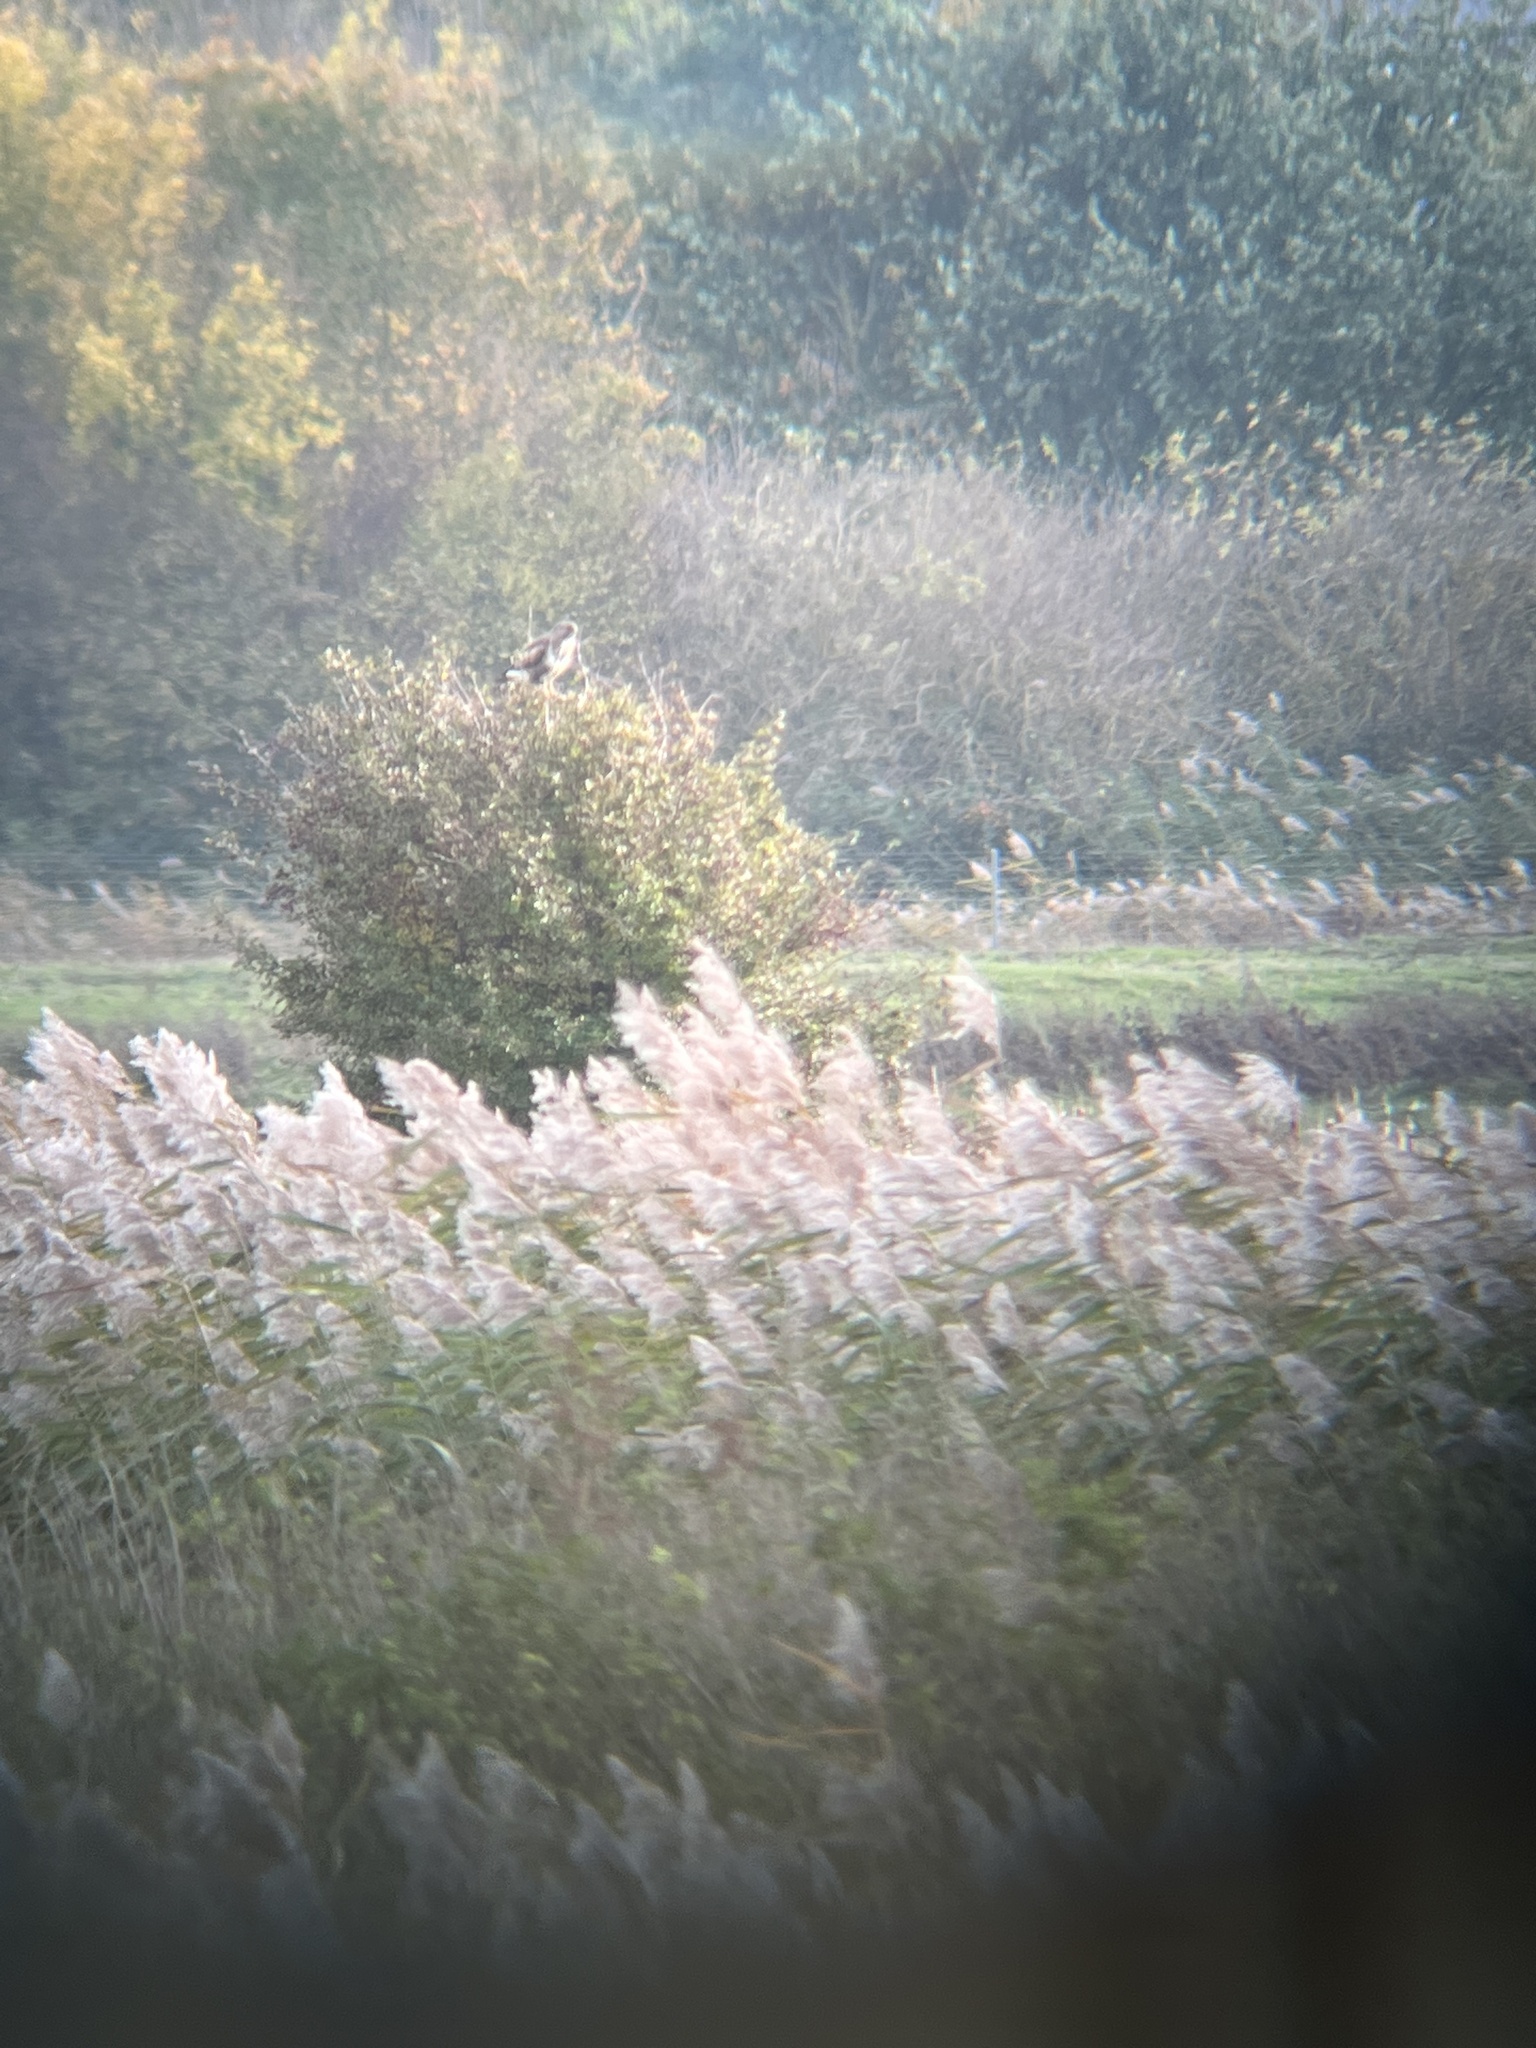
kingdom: Animalia
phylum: Chordata
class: Aves
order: Accipitriformes
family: Accipitridae
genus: Buteo
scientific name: Buteo buteo
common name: Common buzzard
